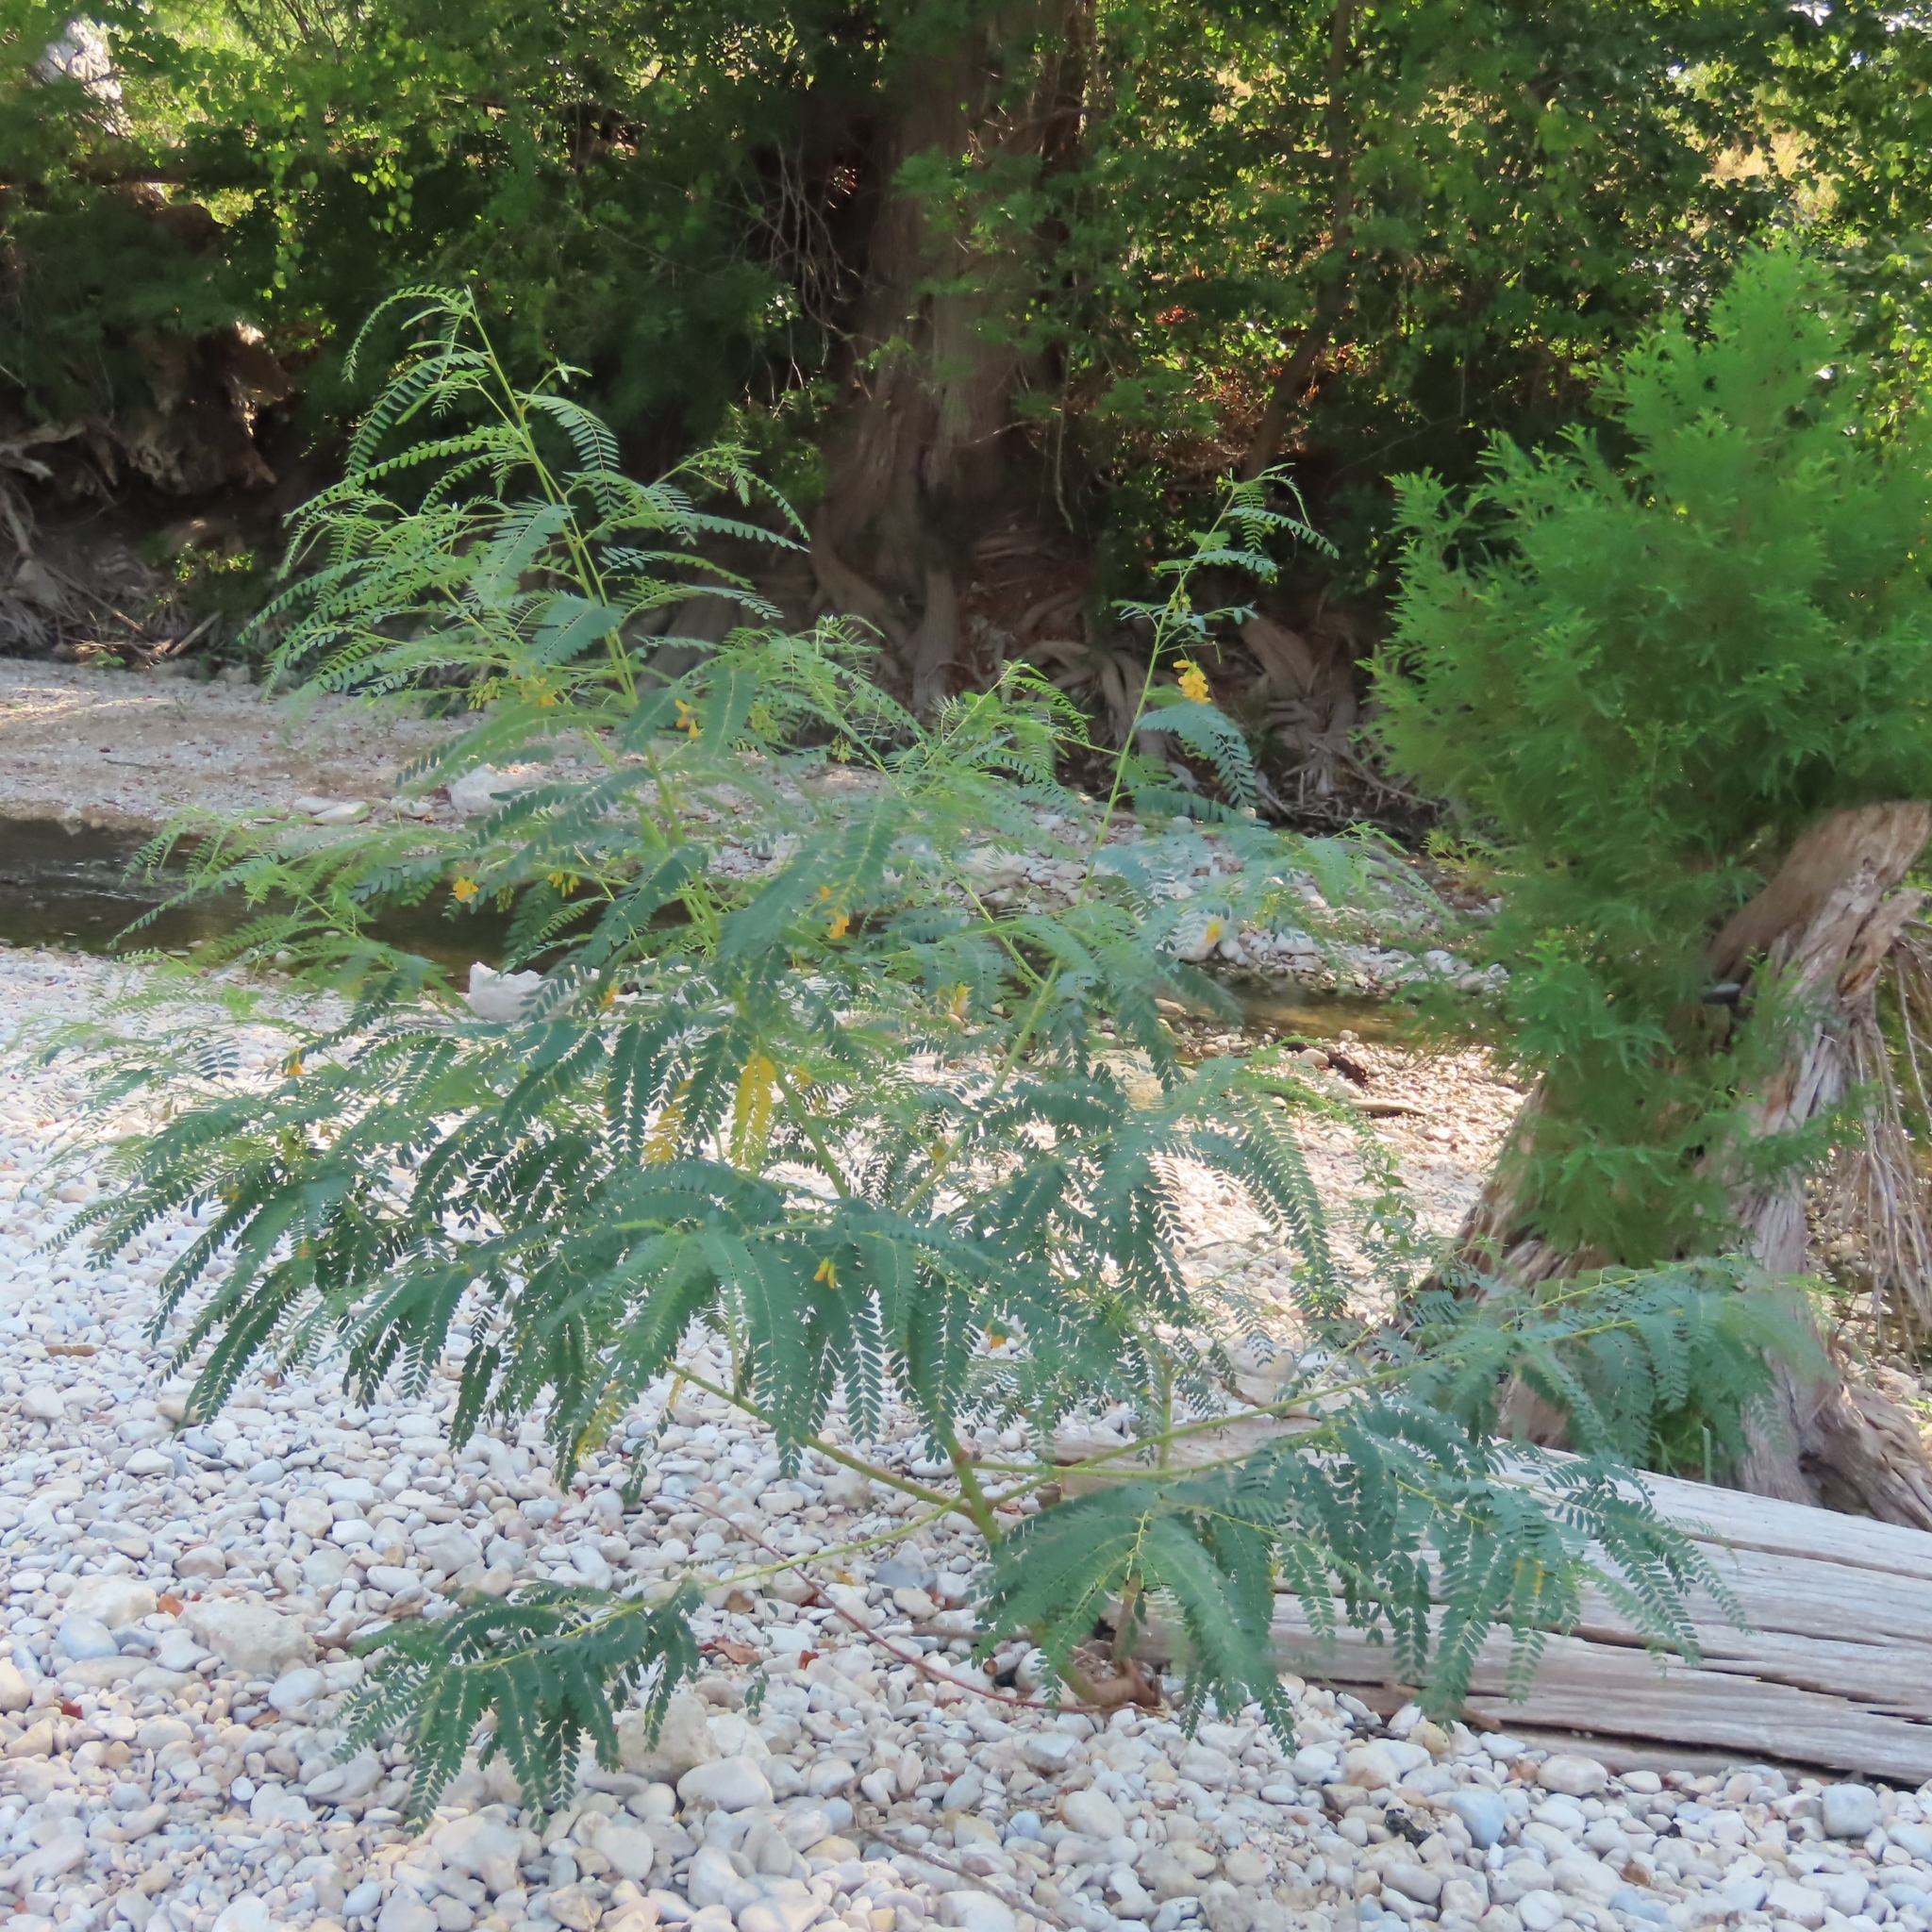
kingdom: Plantae
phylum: Tracheophyta
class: Magnoliopsida
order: Fabales
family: Fabaceae
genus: Sesbania
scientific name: Sesbania drummondii
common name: Poison-bean
